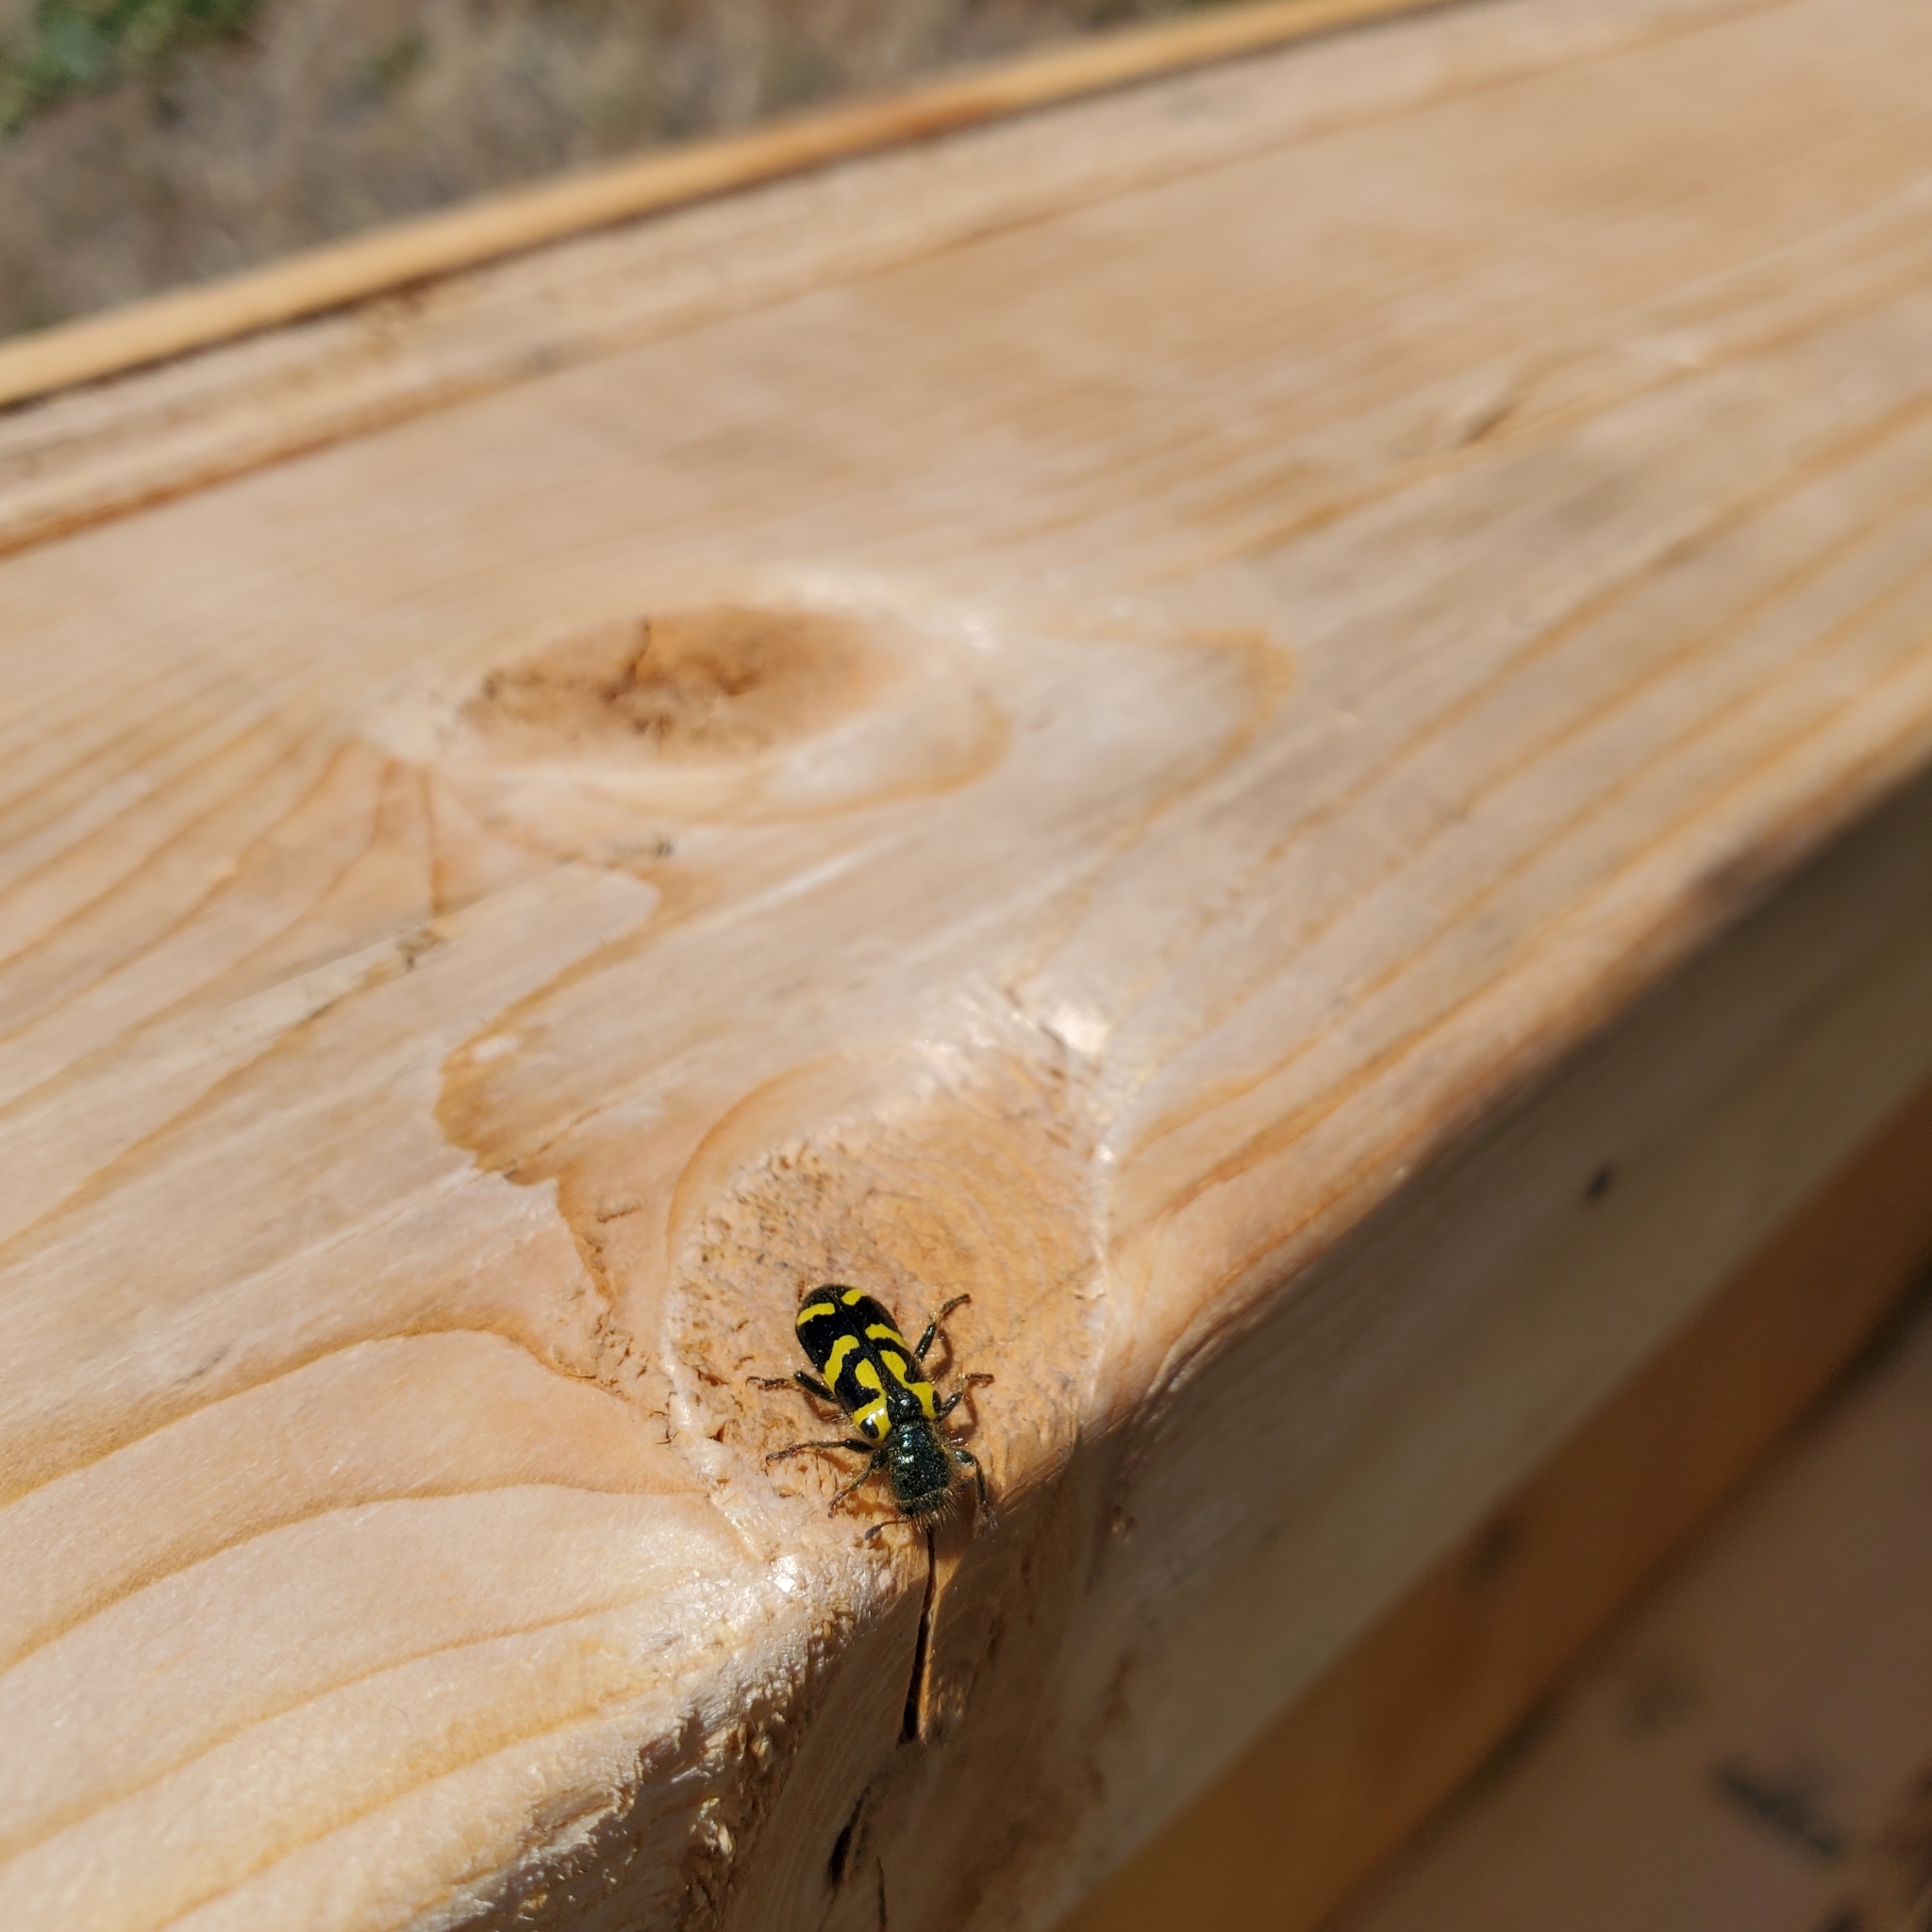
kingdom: Animalia
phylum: Arthropoda
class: Insecta
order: Coleoptera
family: Cleridae
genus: Trichodes
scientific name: Trichodes ornatus
